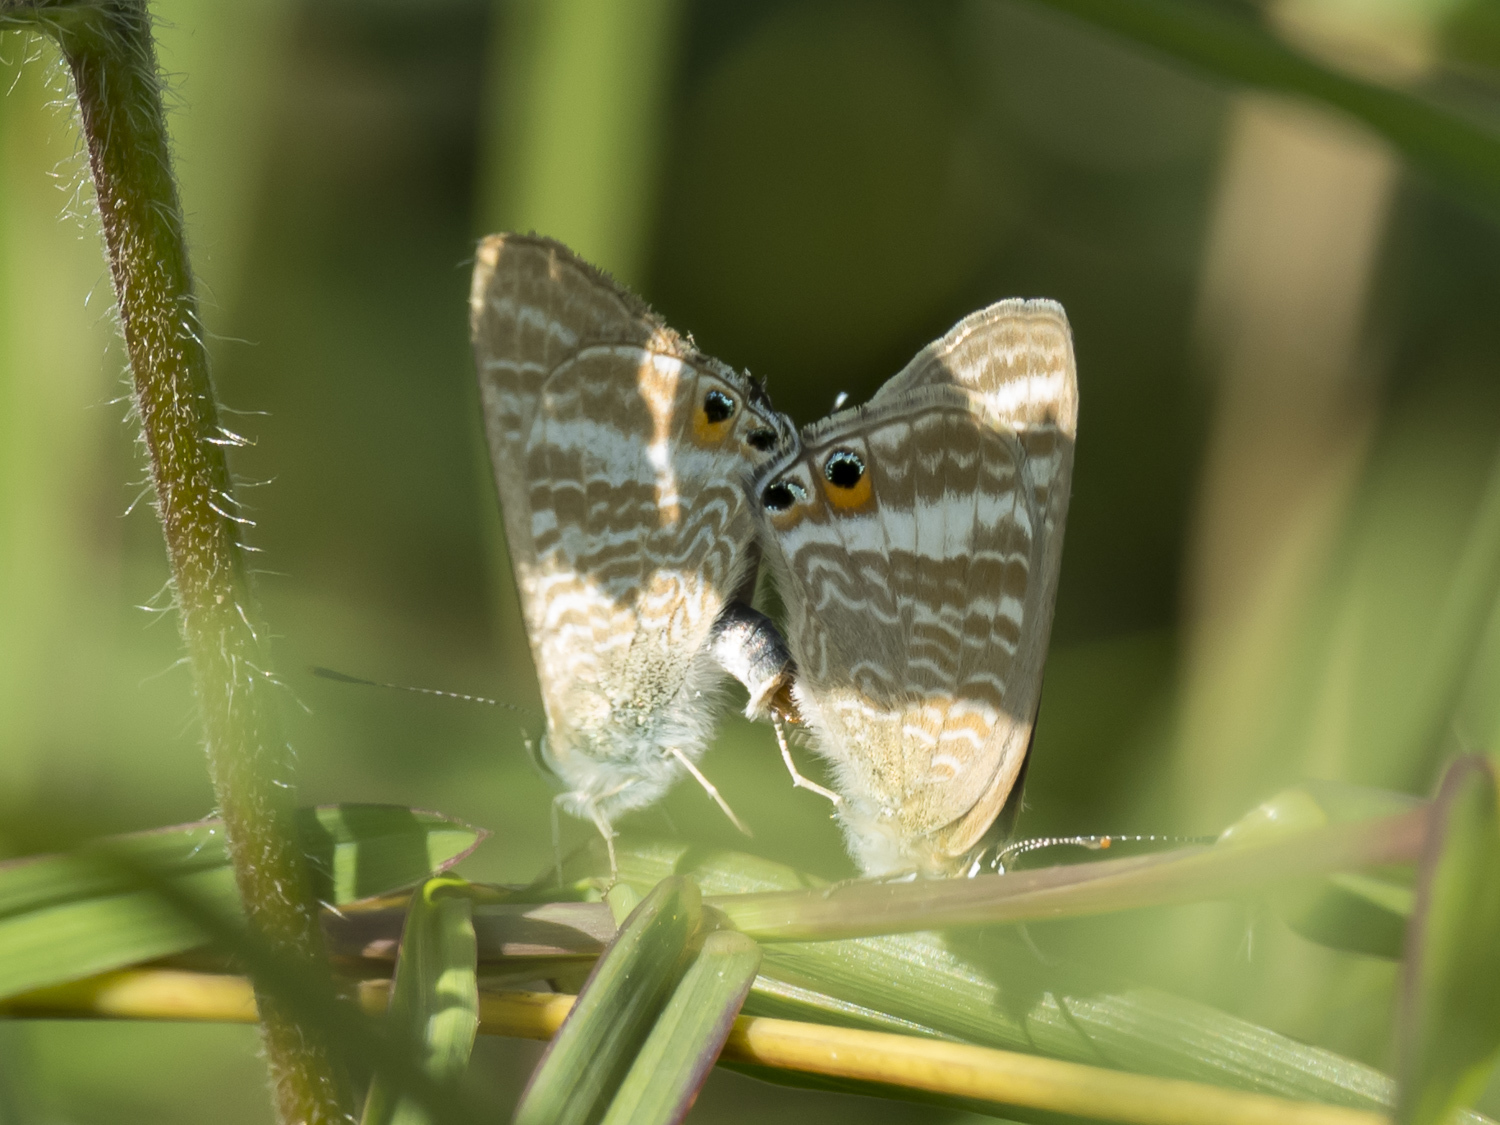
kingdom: Animalia
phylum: Arthropoda
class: Insecta
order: Lepidoptera
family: Lycaenidae
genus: Lampides
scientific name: Lampides boeticus
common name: Long-tailed blue
